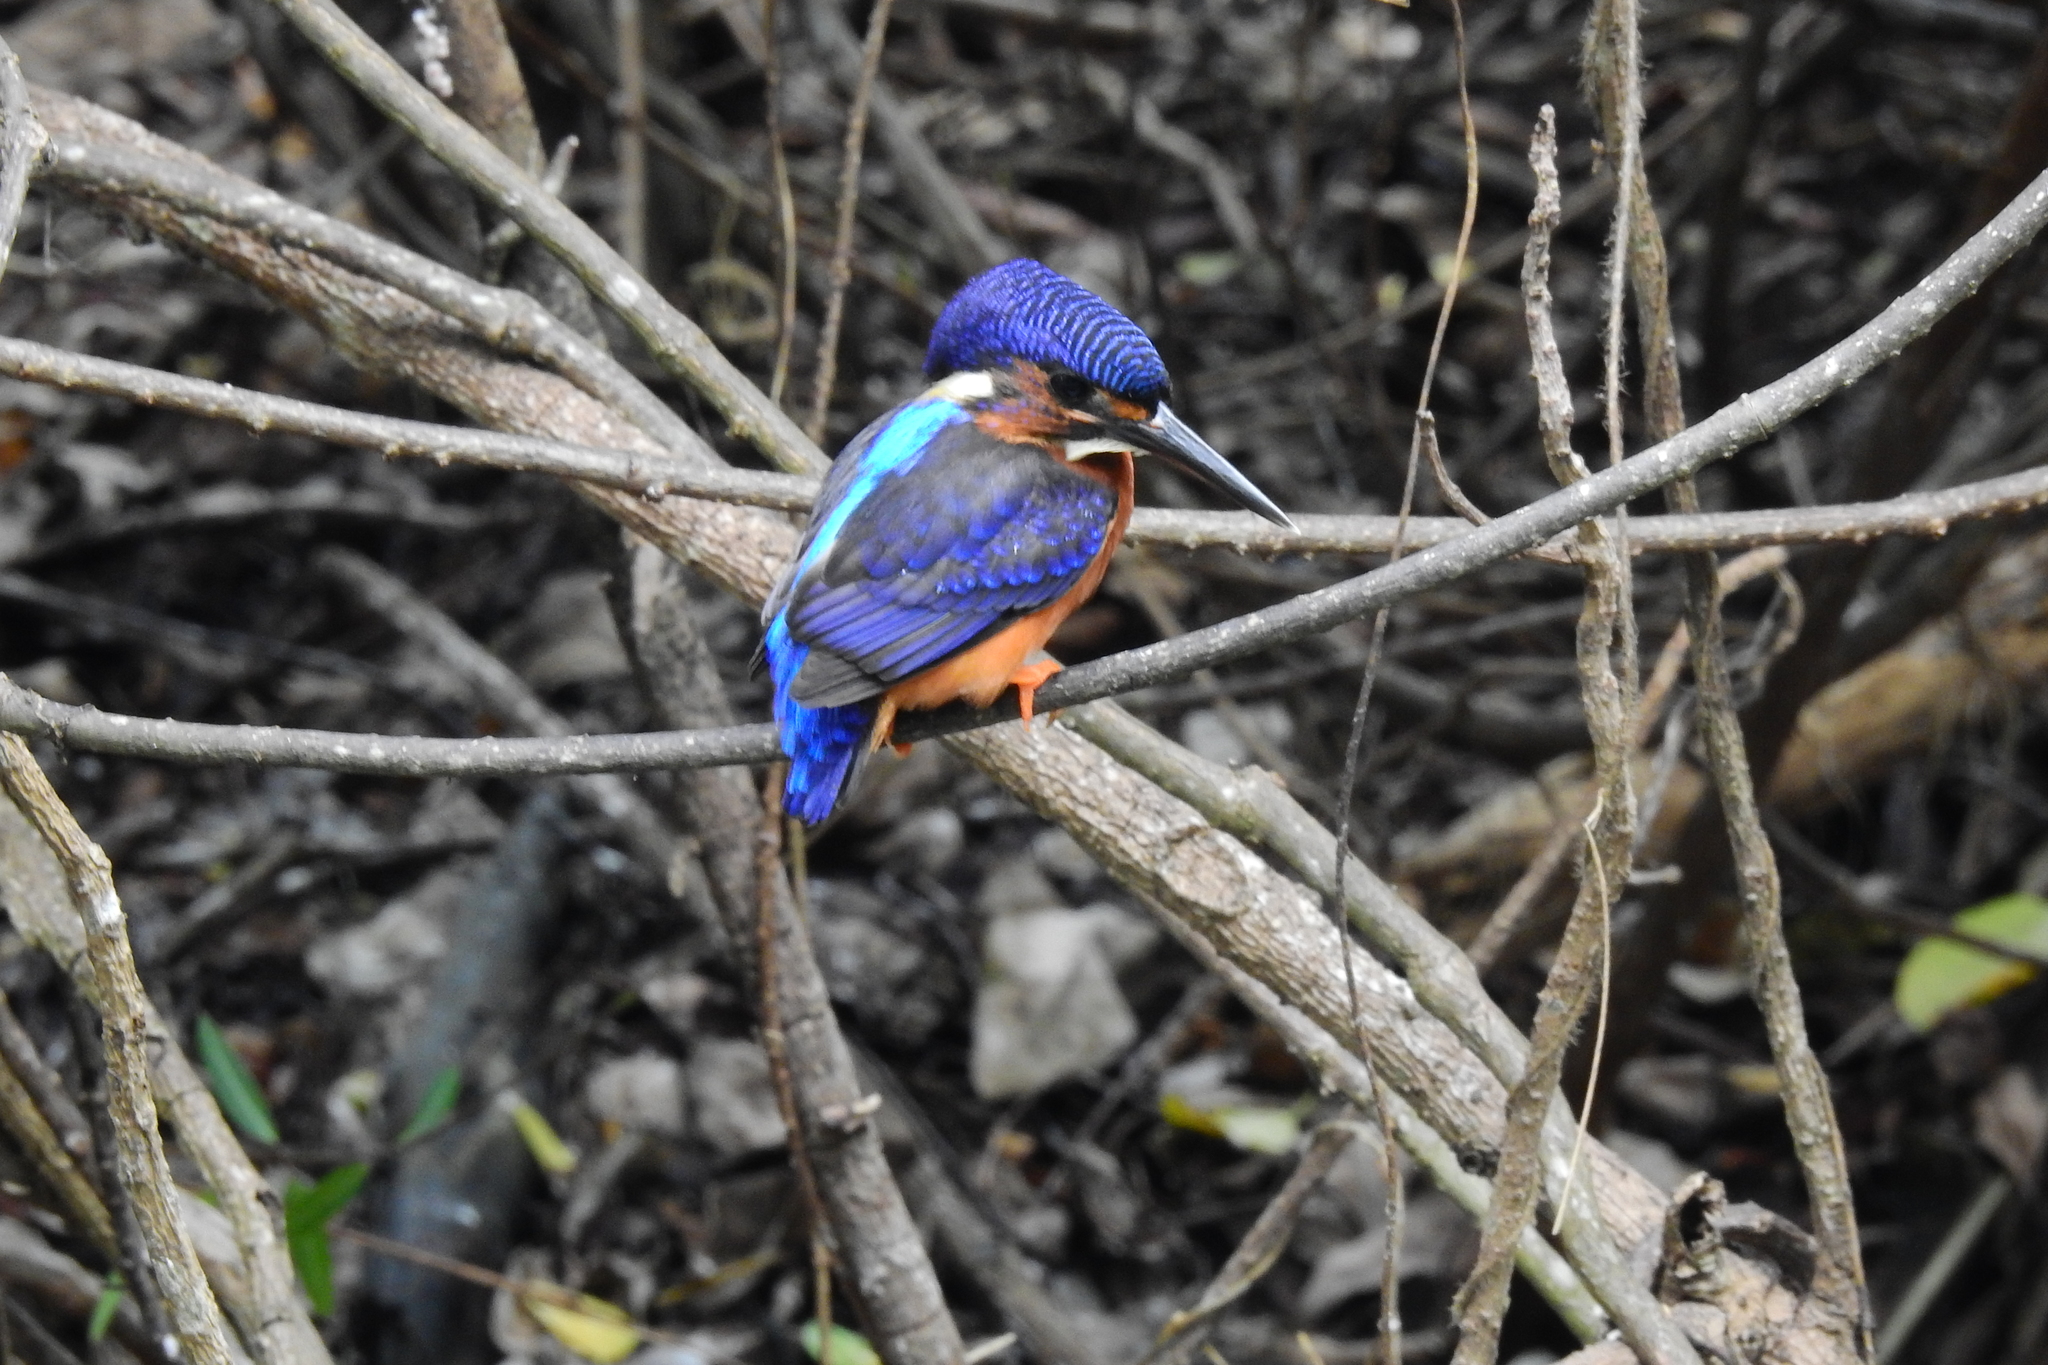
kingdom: Animalia
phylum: Chordata
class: Aves
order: Coraciiformes
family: Alcedinidae
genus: Alcedo
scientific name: Alcedo meninting
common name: Blue-eared kingfisher
